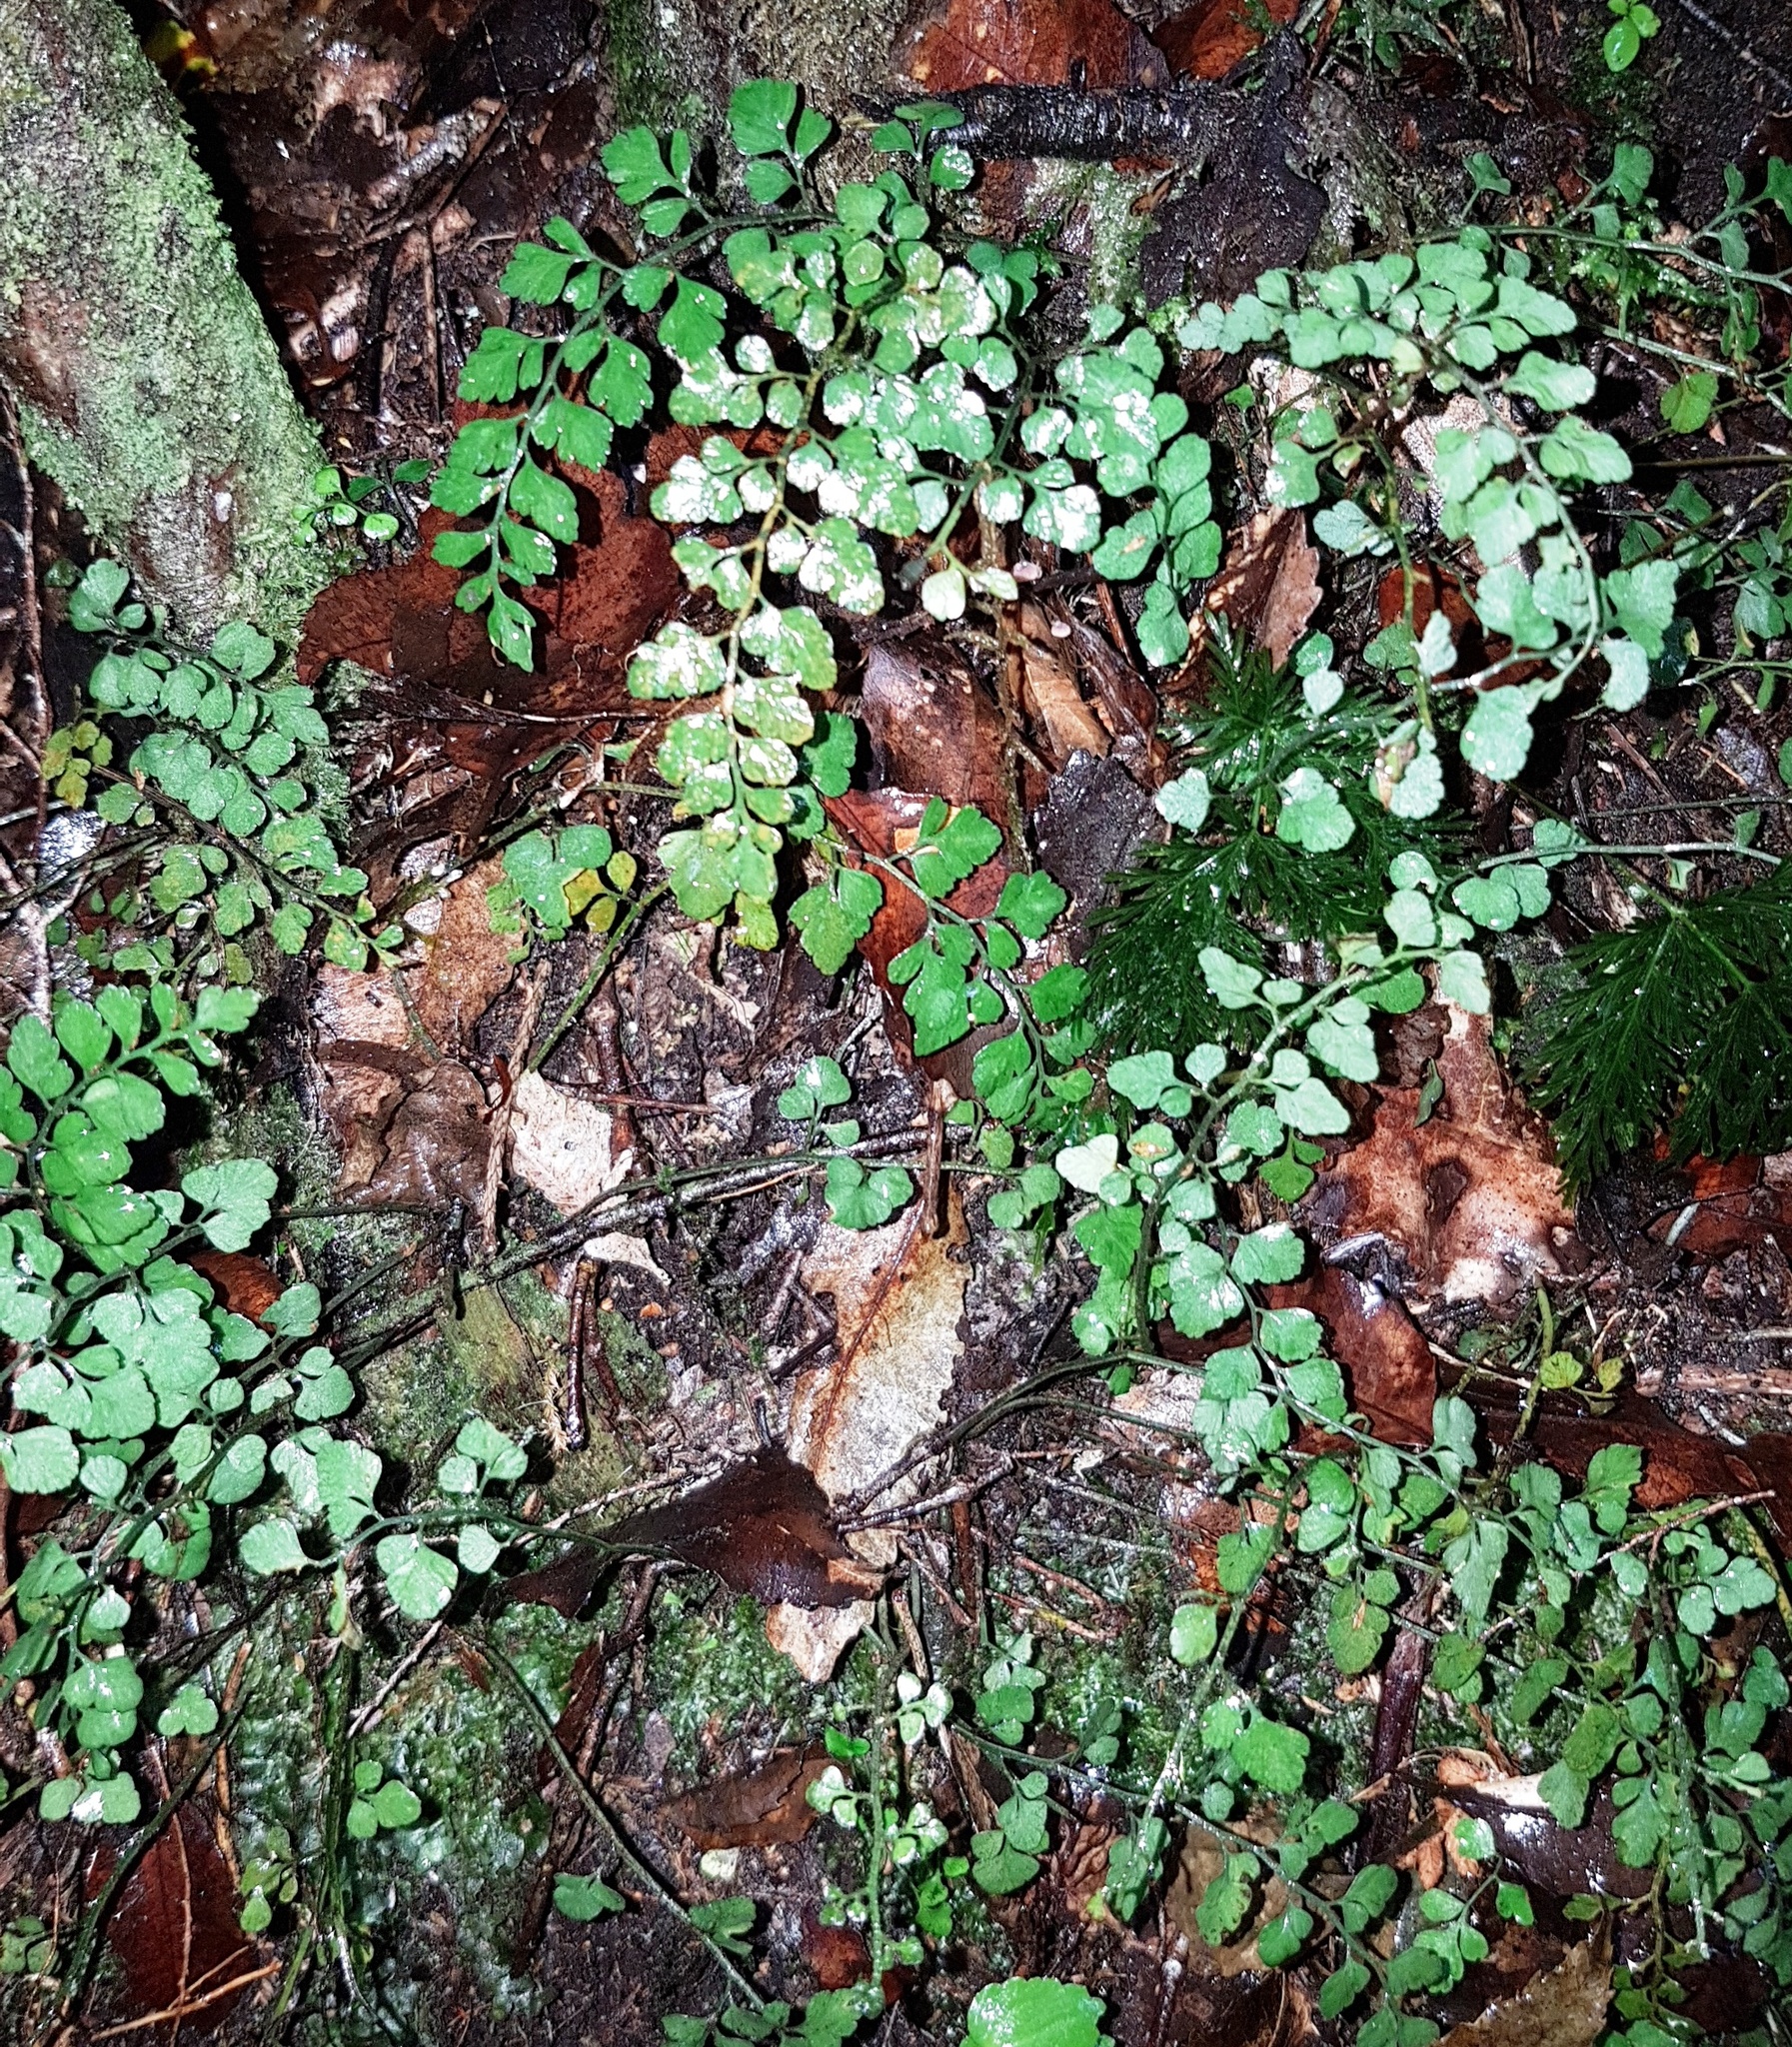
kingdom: Plantae
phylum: Tracheophyta
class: Polypodiopsida
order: Polypodiales
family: Aspleniaceae
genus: Asplenium
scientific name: Asplenium hookerianum
